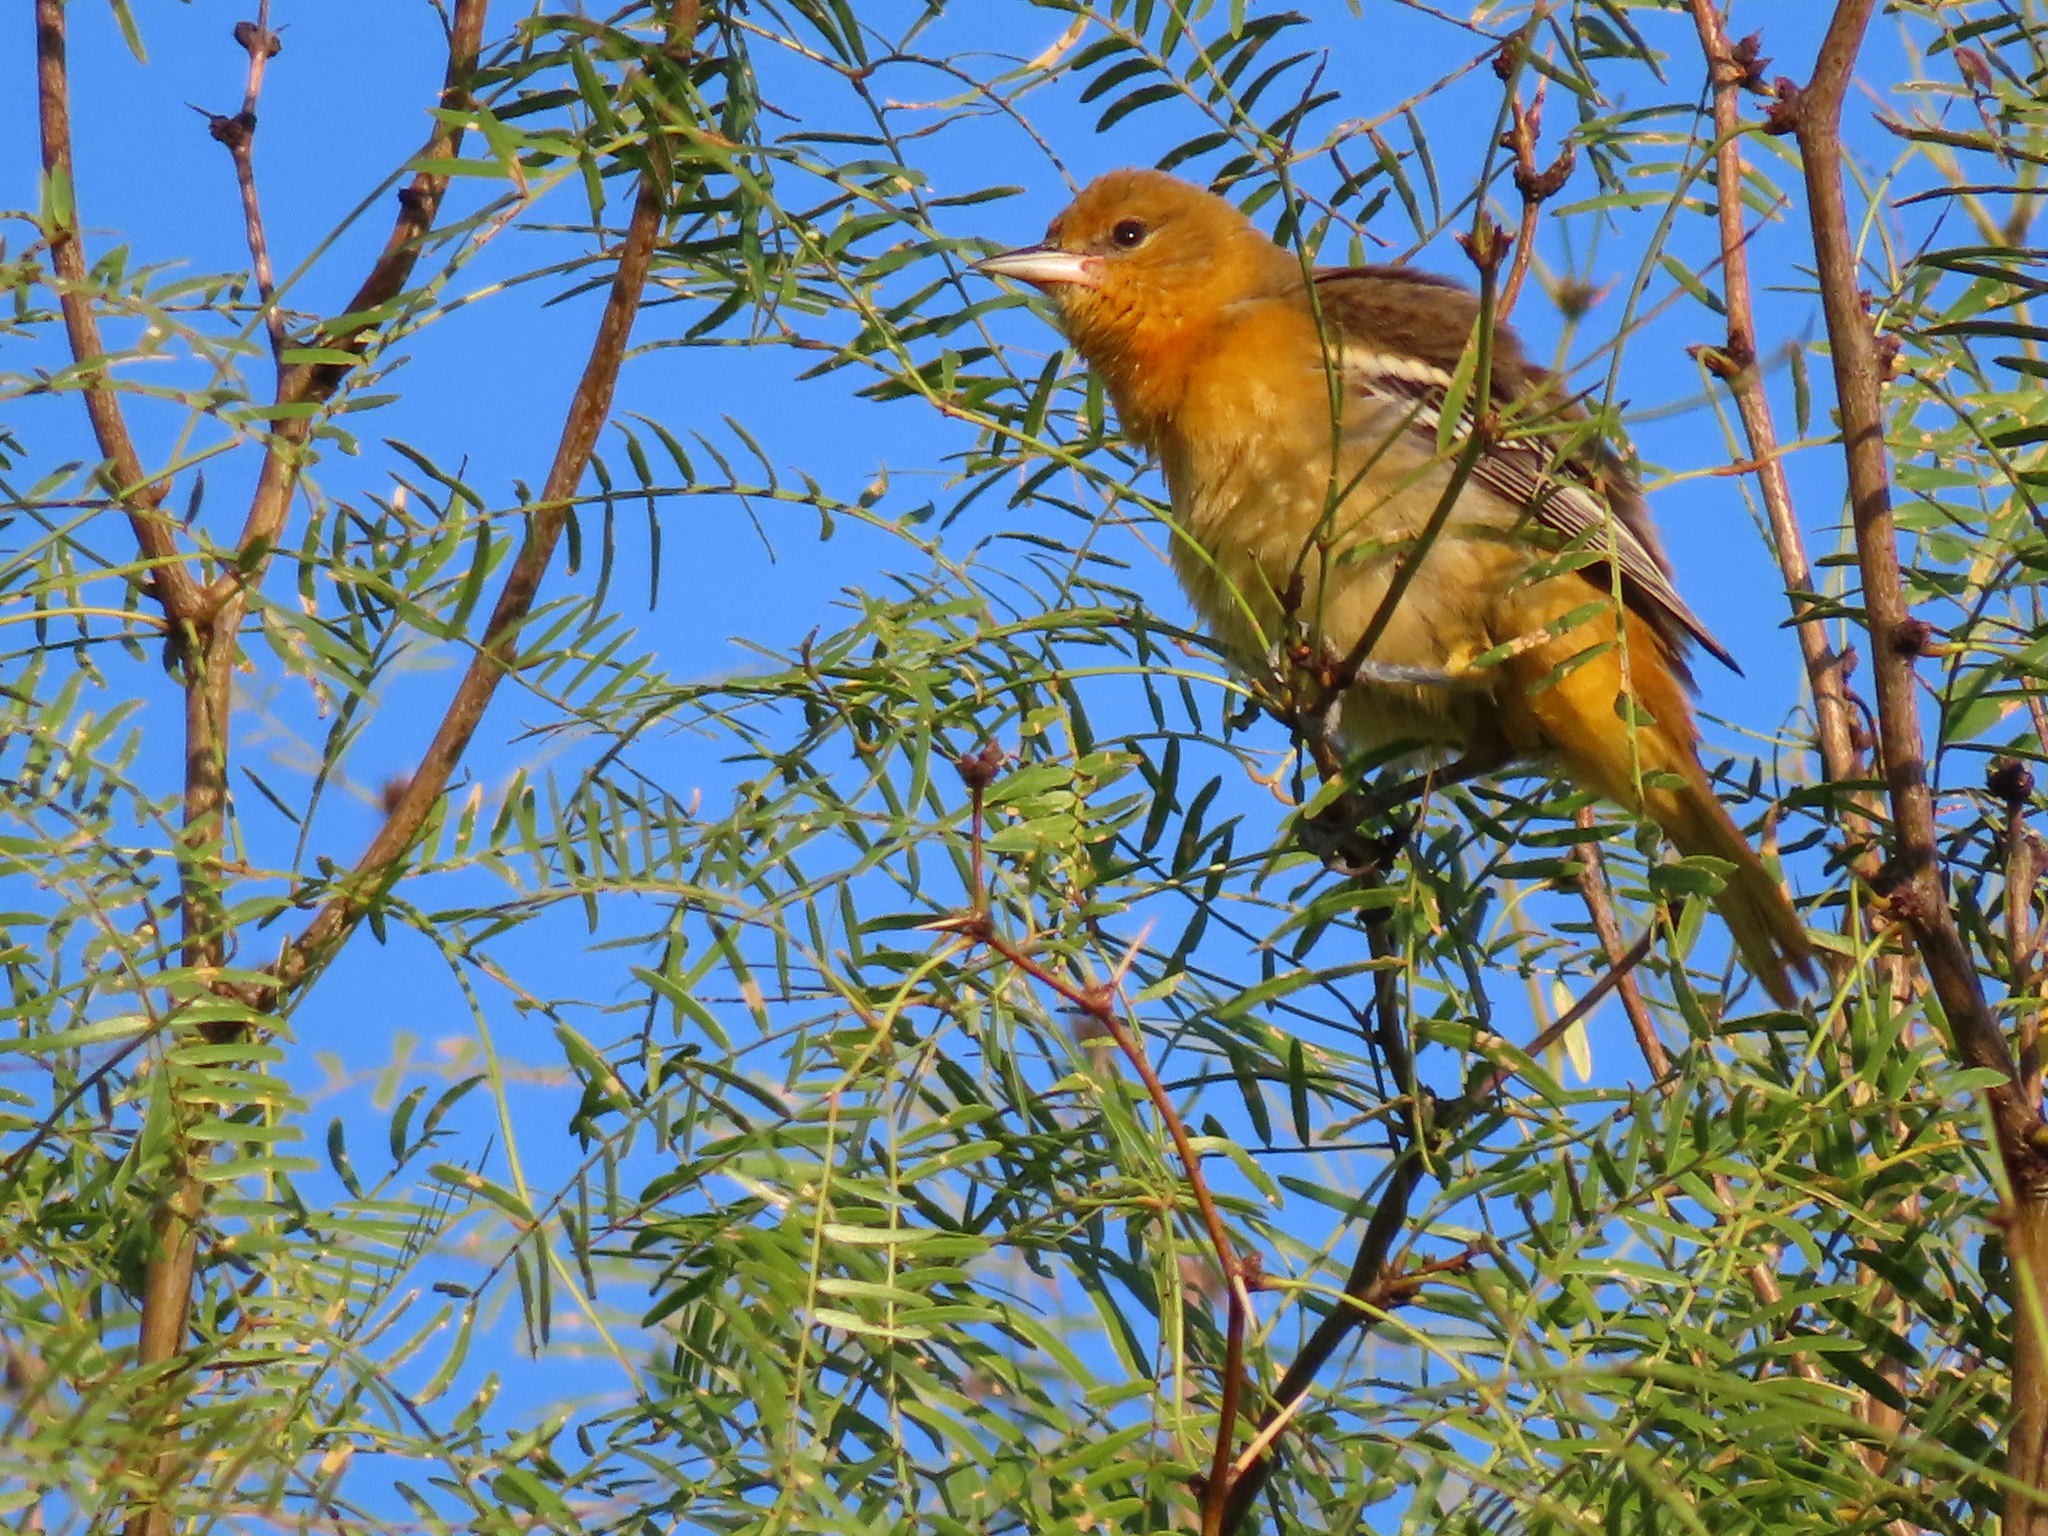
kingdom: Animalia
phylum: Chordata
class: Aves
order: Passeriformes
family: Icteridae
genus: Icterus
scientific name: Icterus cucullatus
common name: Hooded oriole
